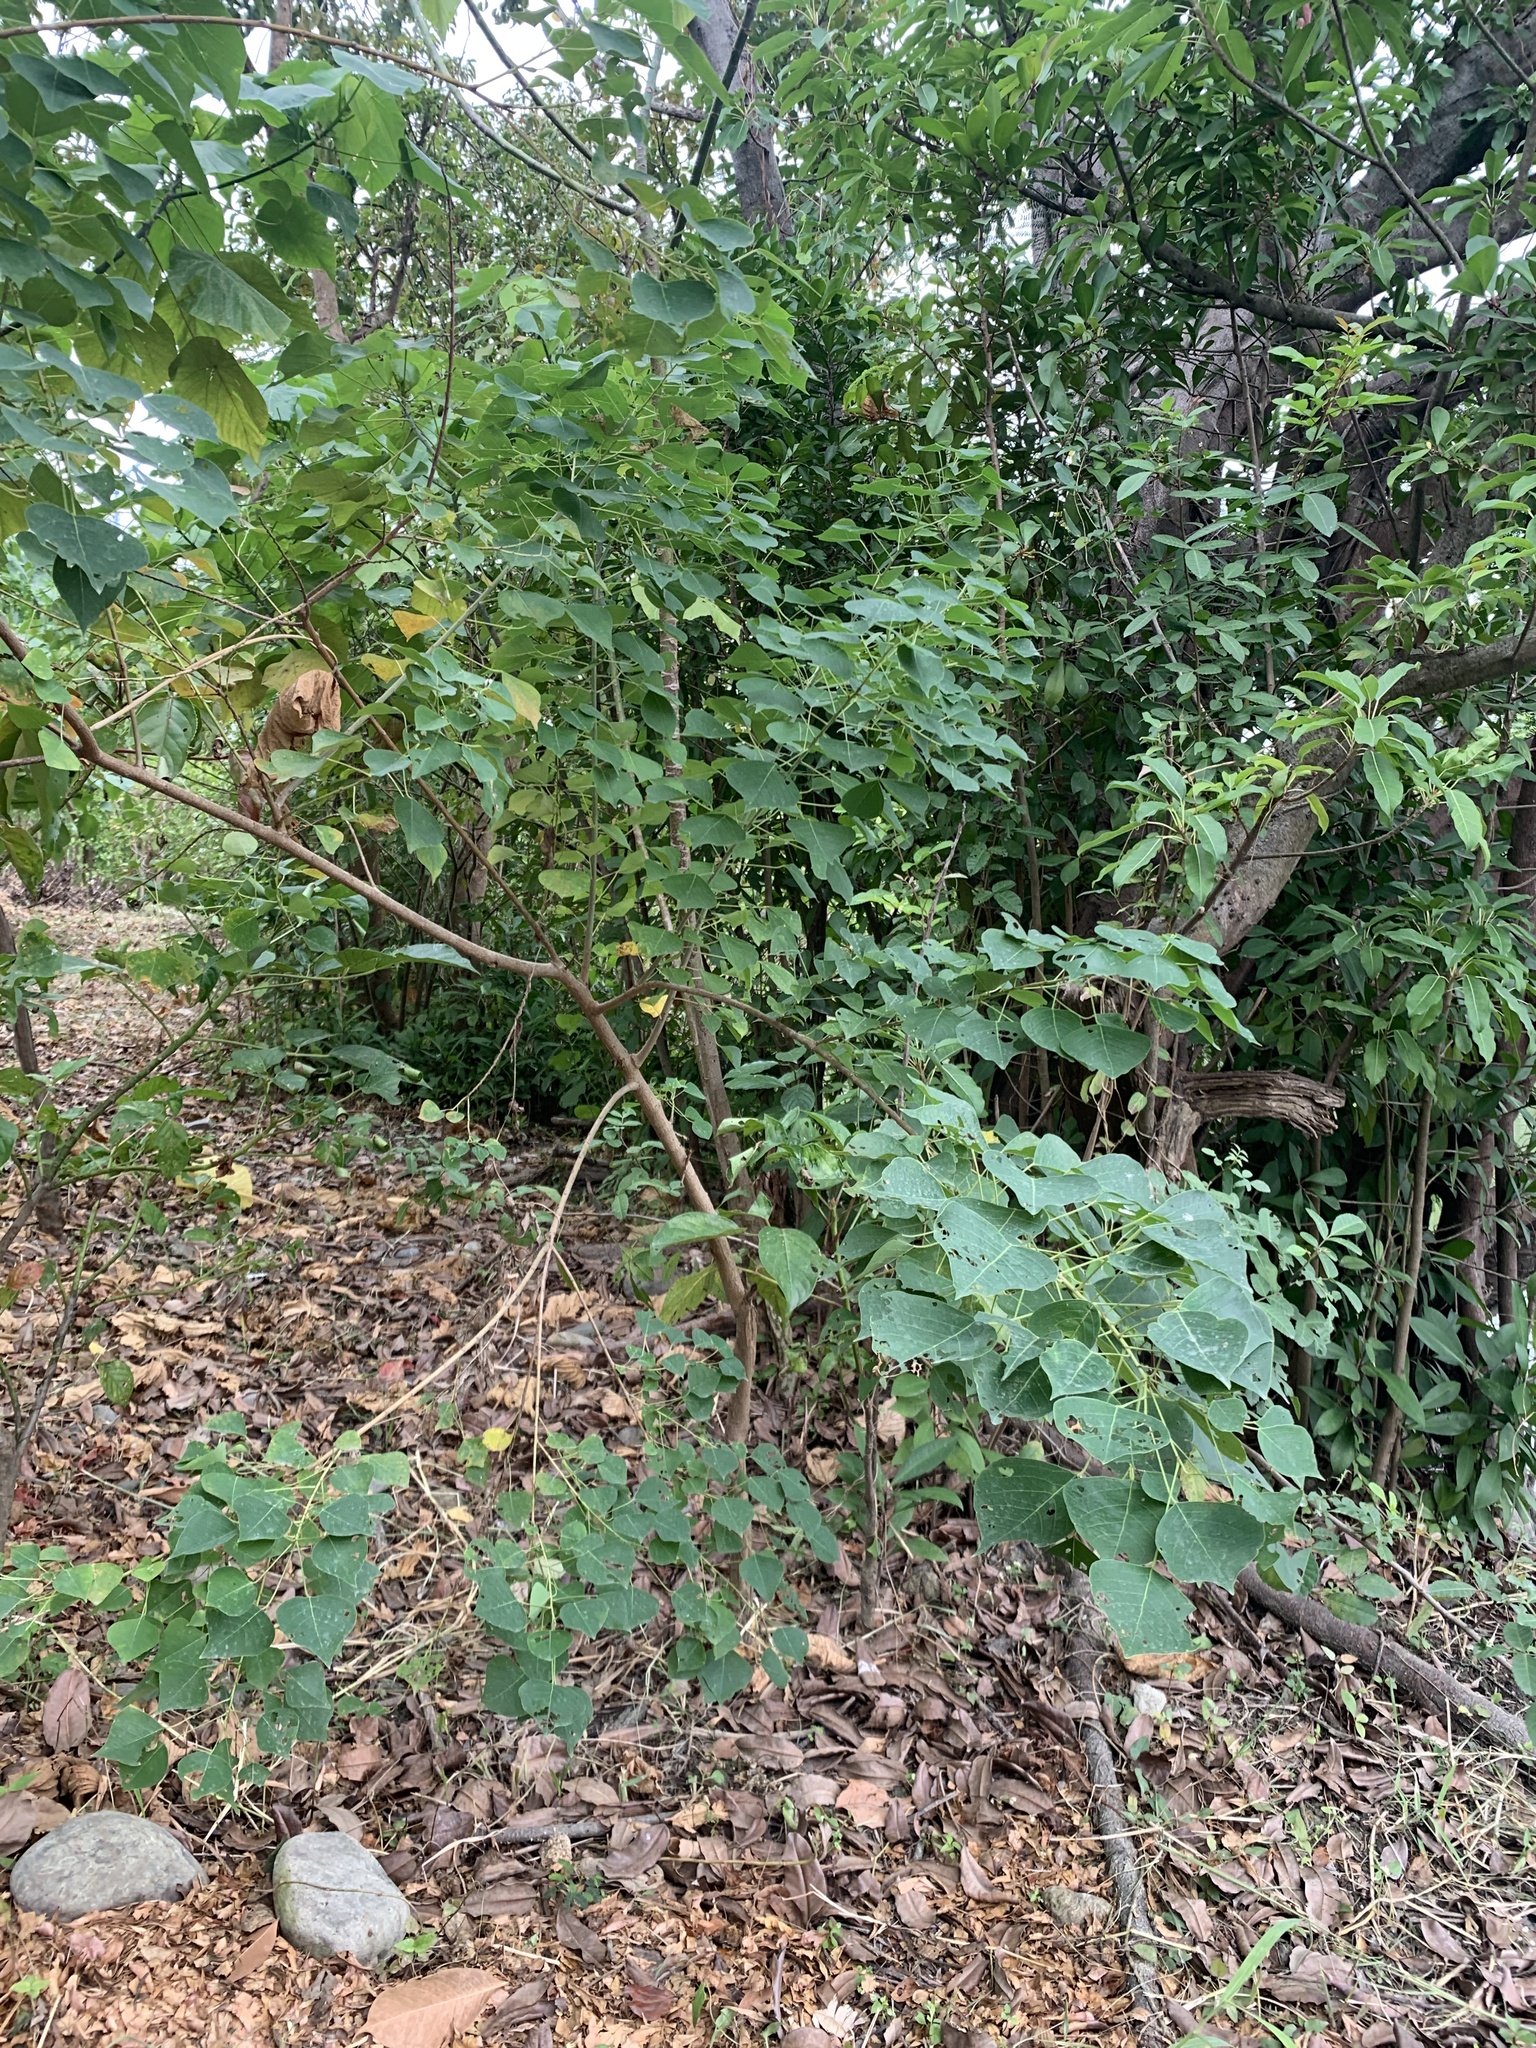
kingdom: Plantae
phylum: Tracheophyta
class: Magnoliopsida
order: Malpighiales
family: Euphorbiaceae
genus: Triadica
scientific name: Triadica sebifera
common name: Chinese tallow
